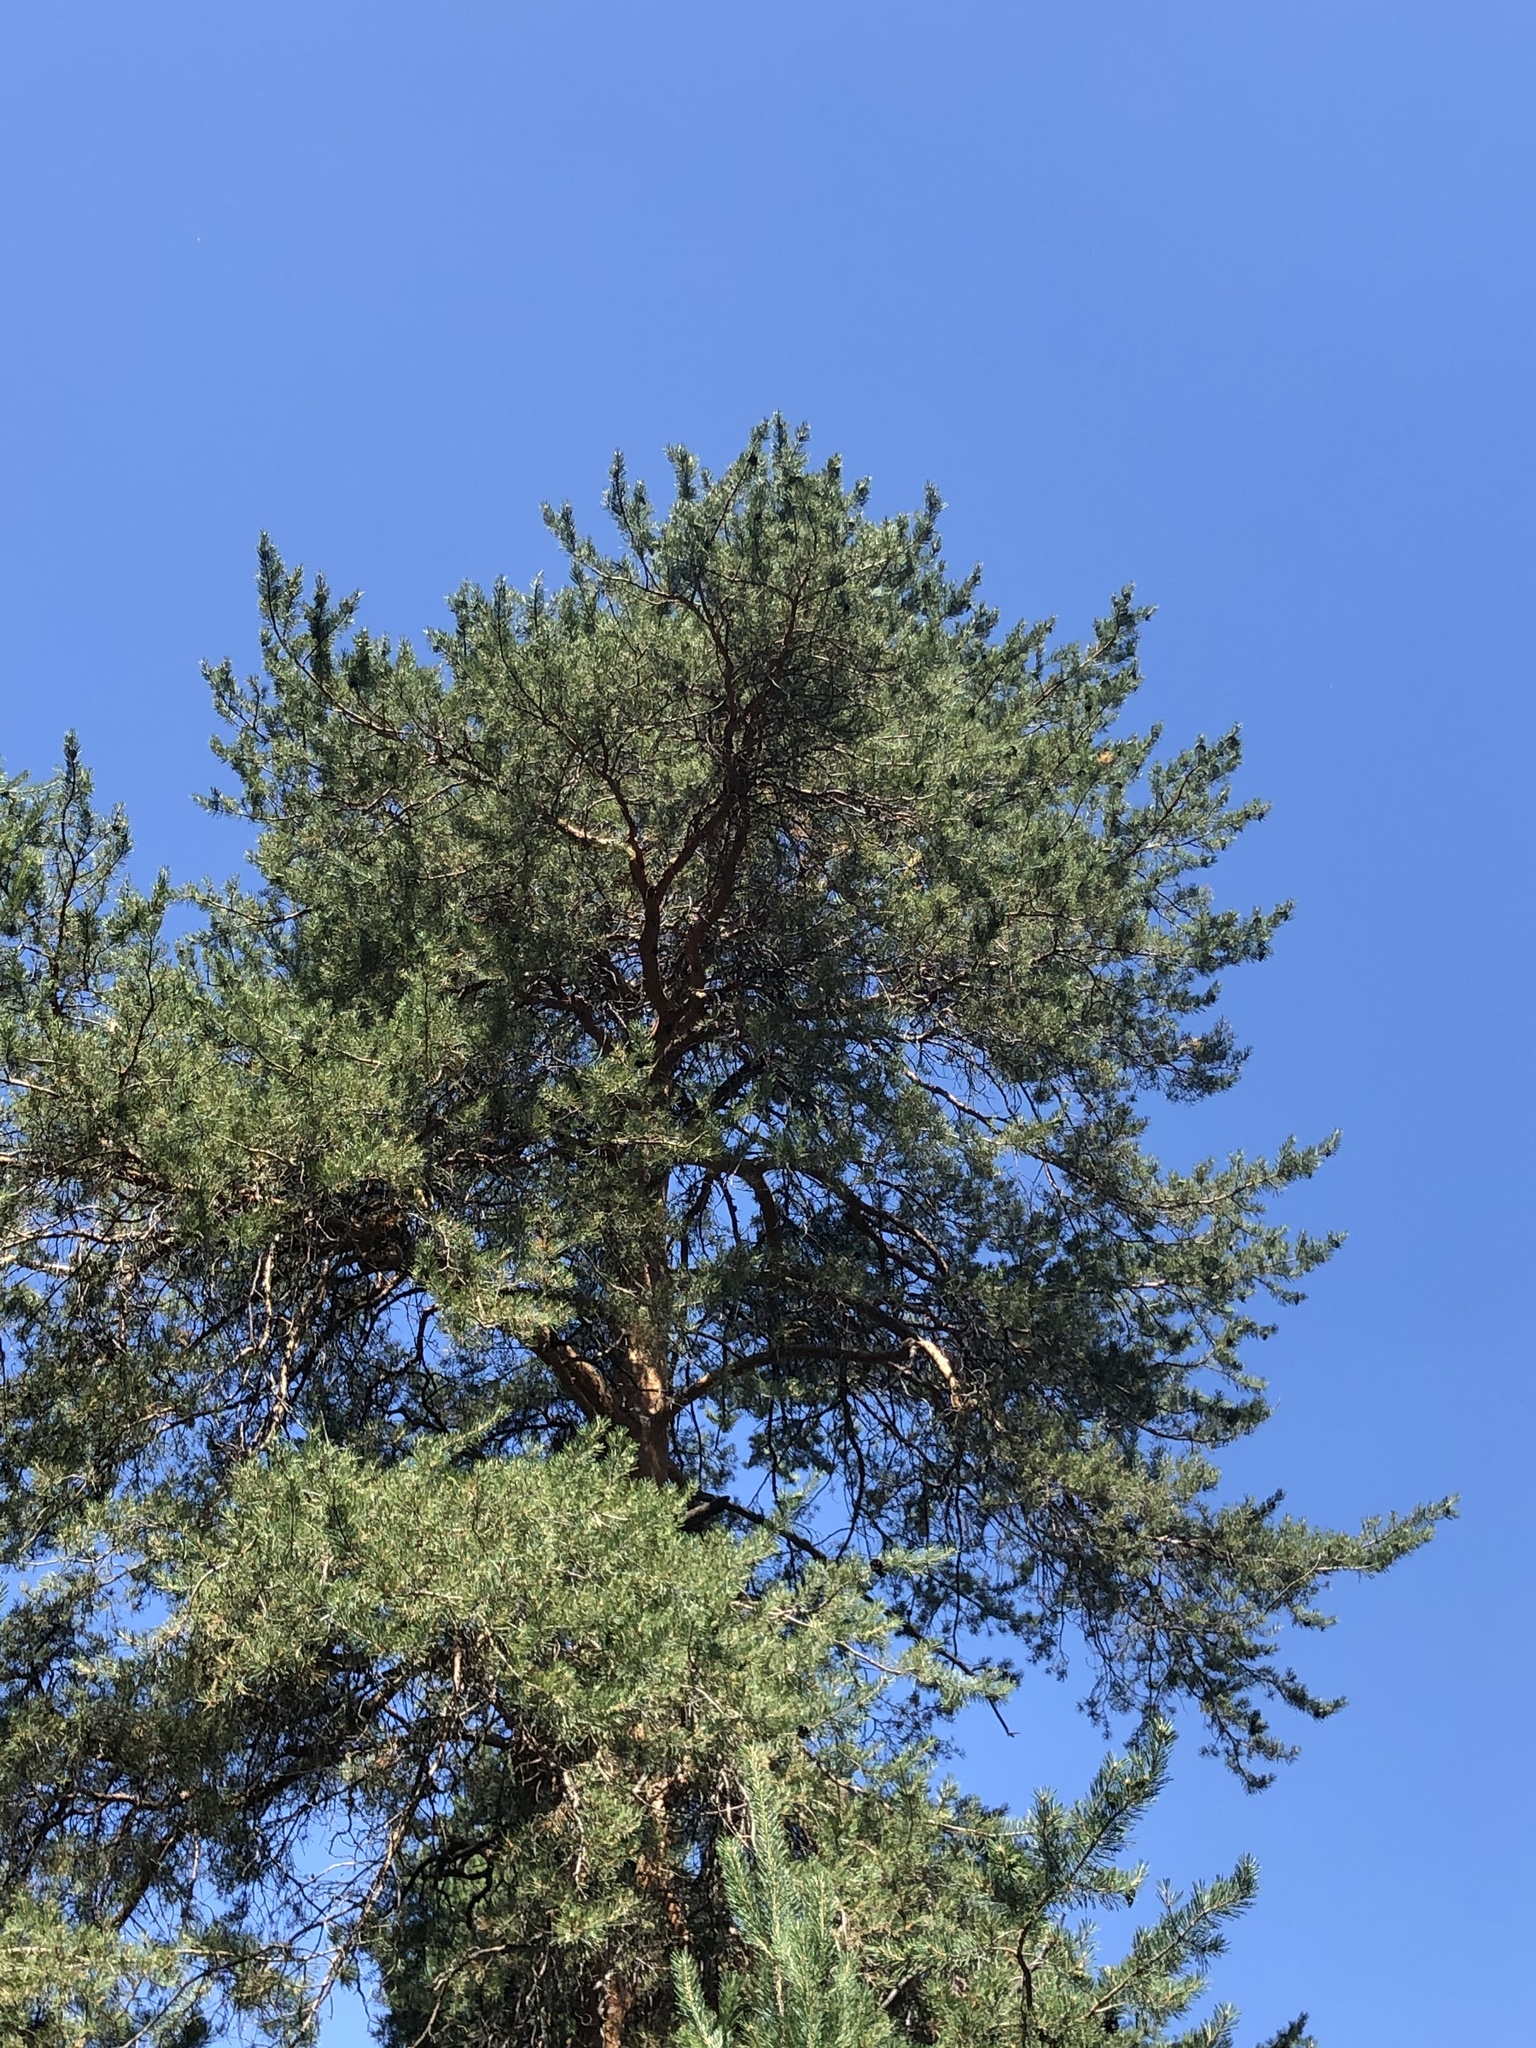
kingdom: Plantae
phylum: Tracheophyta
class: Pinopsida
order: Pinales
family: Pinaceae
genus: Pinus
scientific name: Pinus sylvestris
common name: Scots pine
